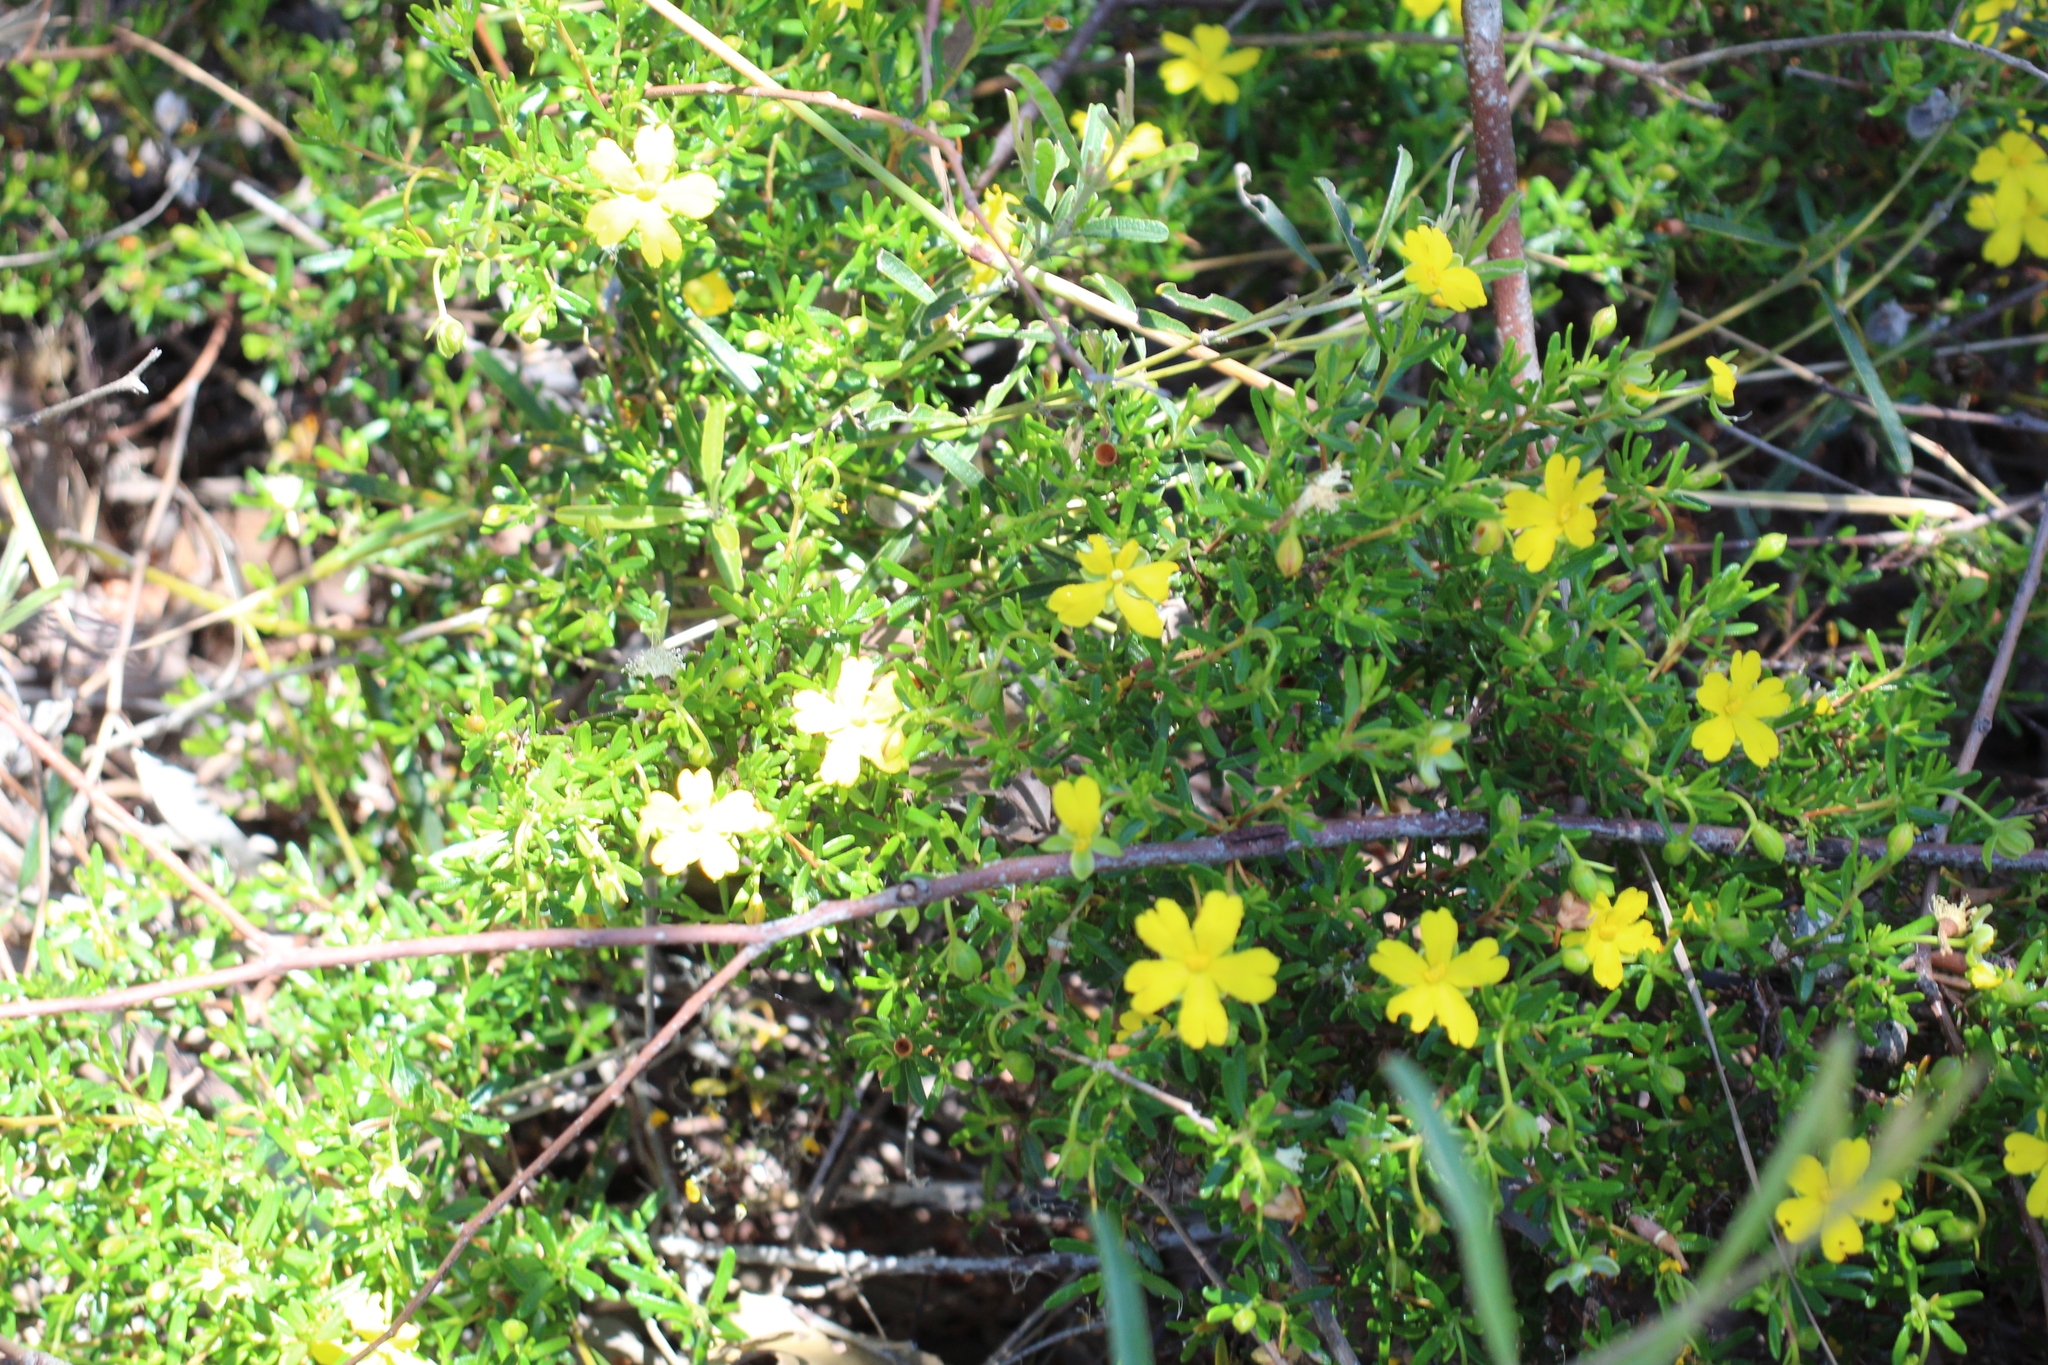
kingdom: Plantae
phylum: Tracheophyta
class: Magnoliopsida
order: Dilleniales
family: Dilleniaceae
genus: Hibbertia
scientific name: Hibbertia hypericoides
